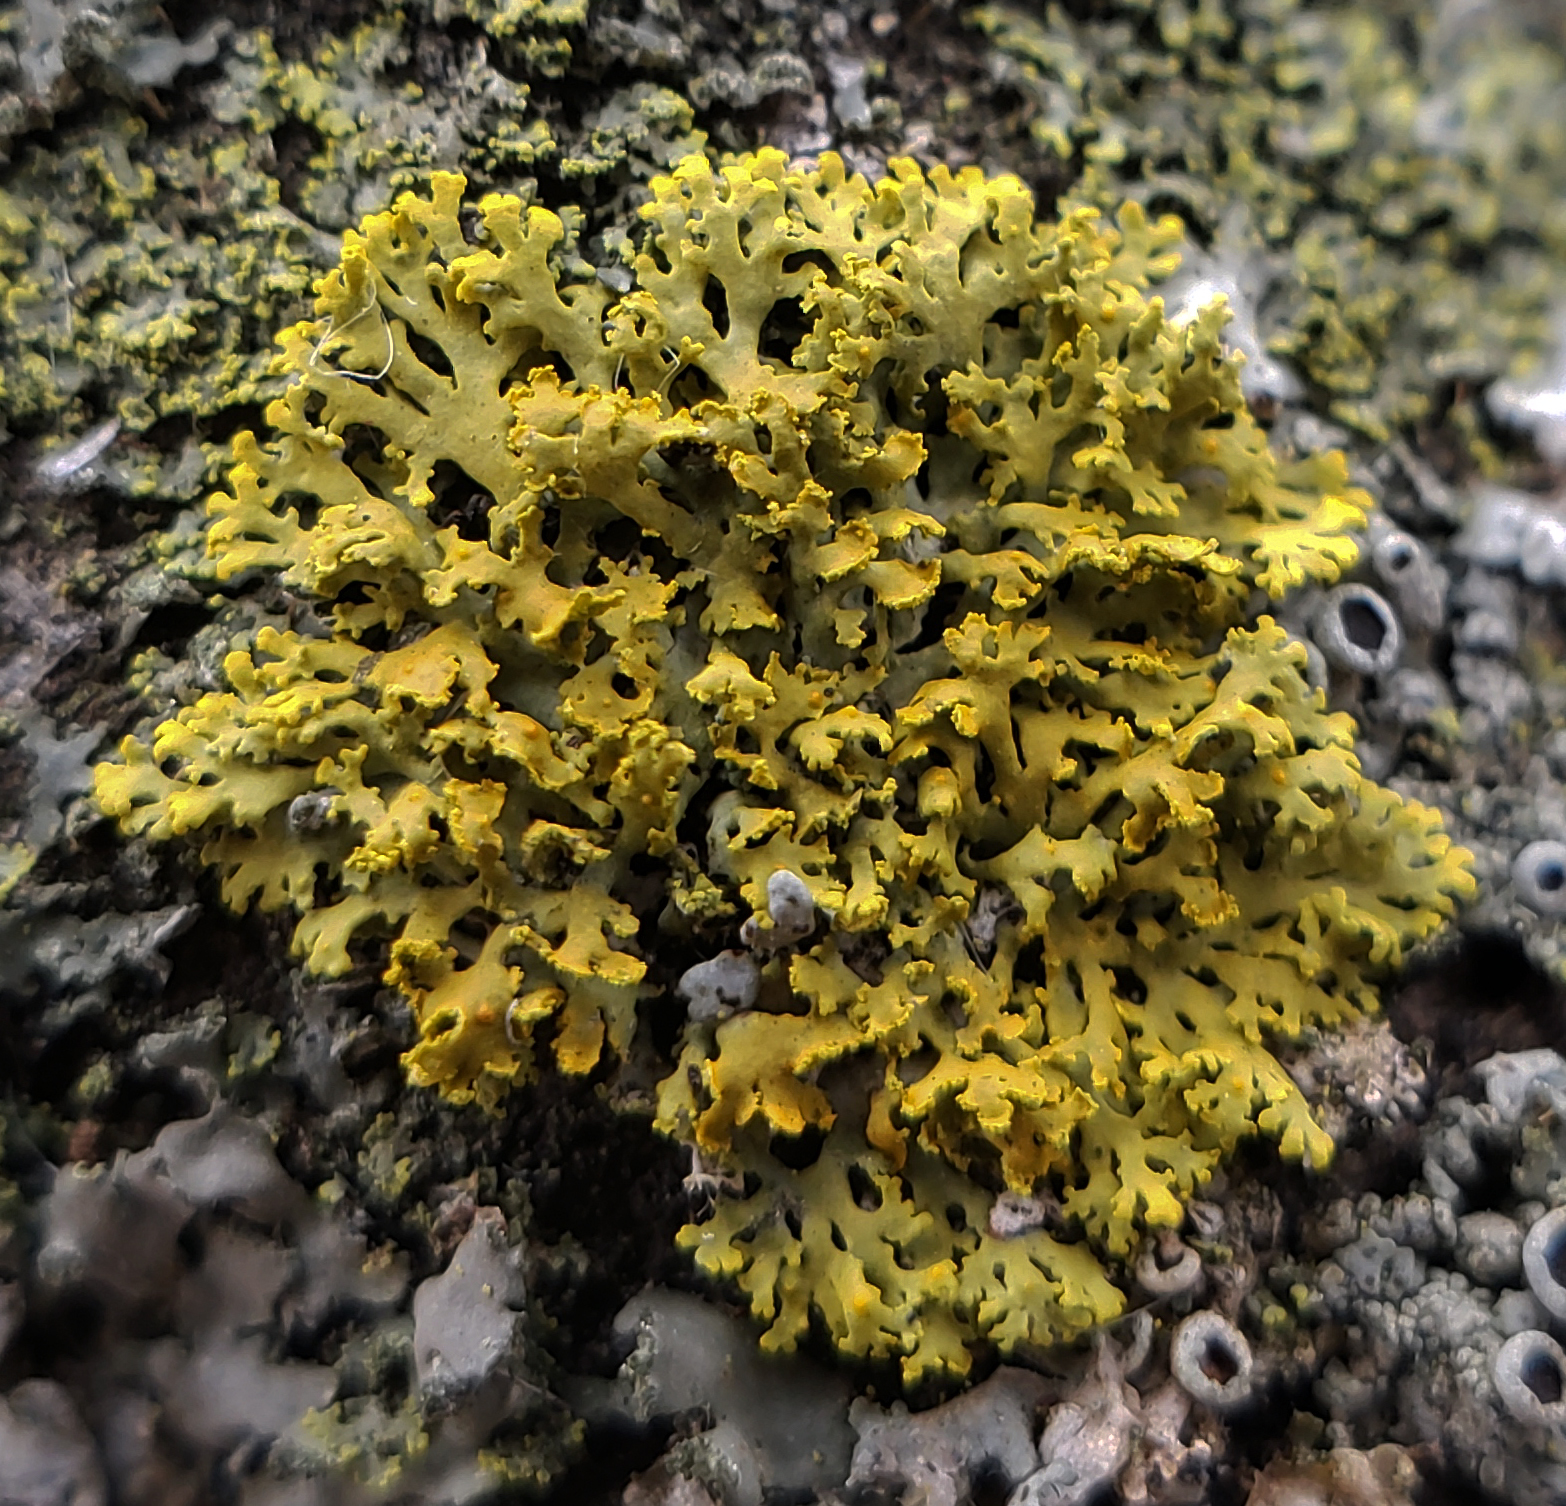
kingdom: Fungi
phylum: Ascomycota
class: Lecanoromycetes
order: Teloschistales
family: Teloschistaceae
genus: Gallowayella
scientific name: Gallowayella weberi
